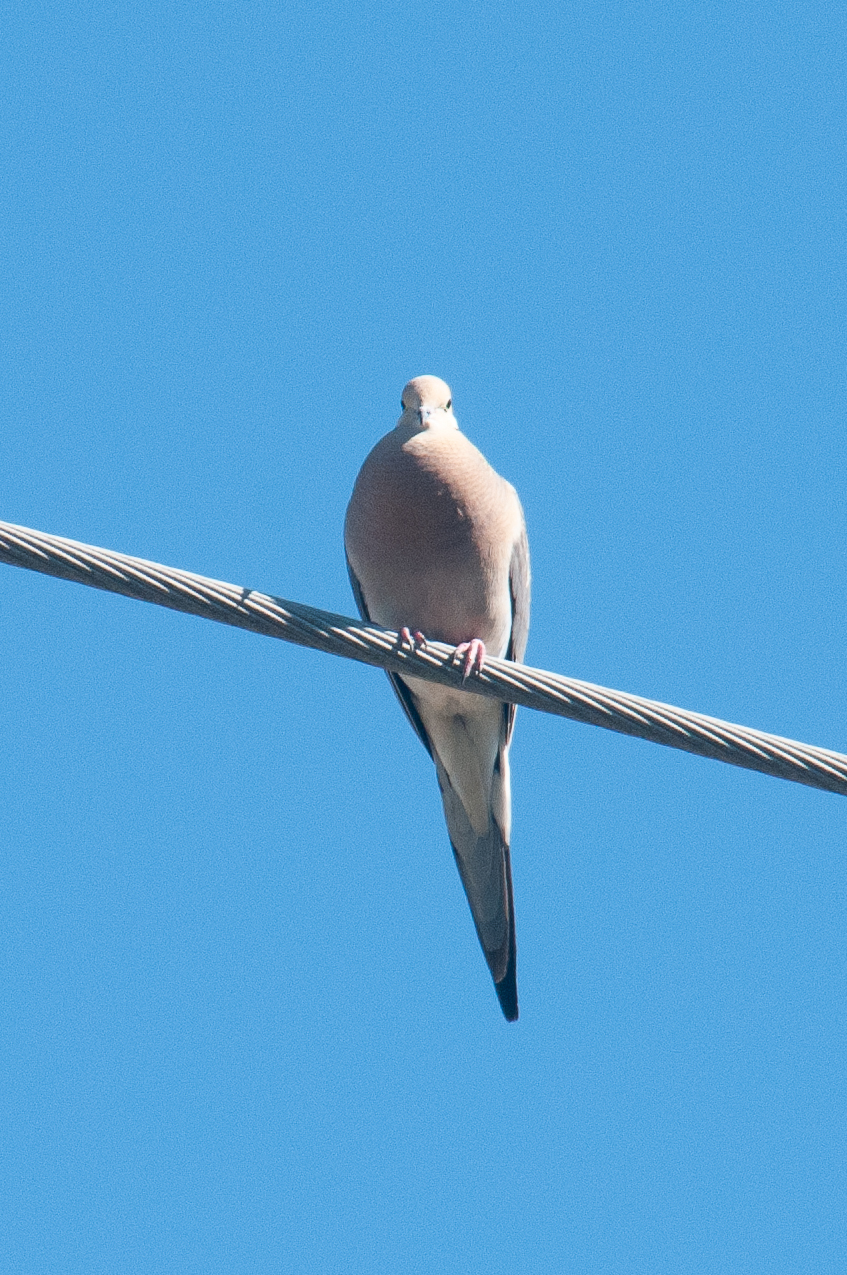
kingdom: Animalia
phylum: Chordata
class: Aves
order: Columbiformes
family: Columbidae
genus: Zenaida
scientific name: Zenaida macroura
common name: Mourning dove
